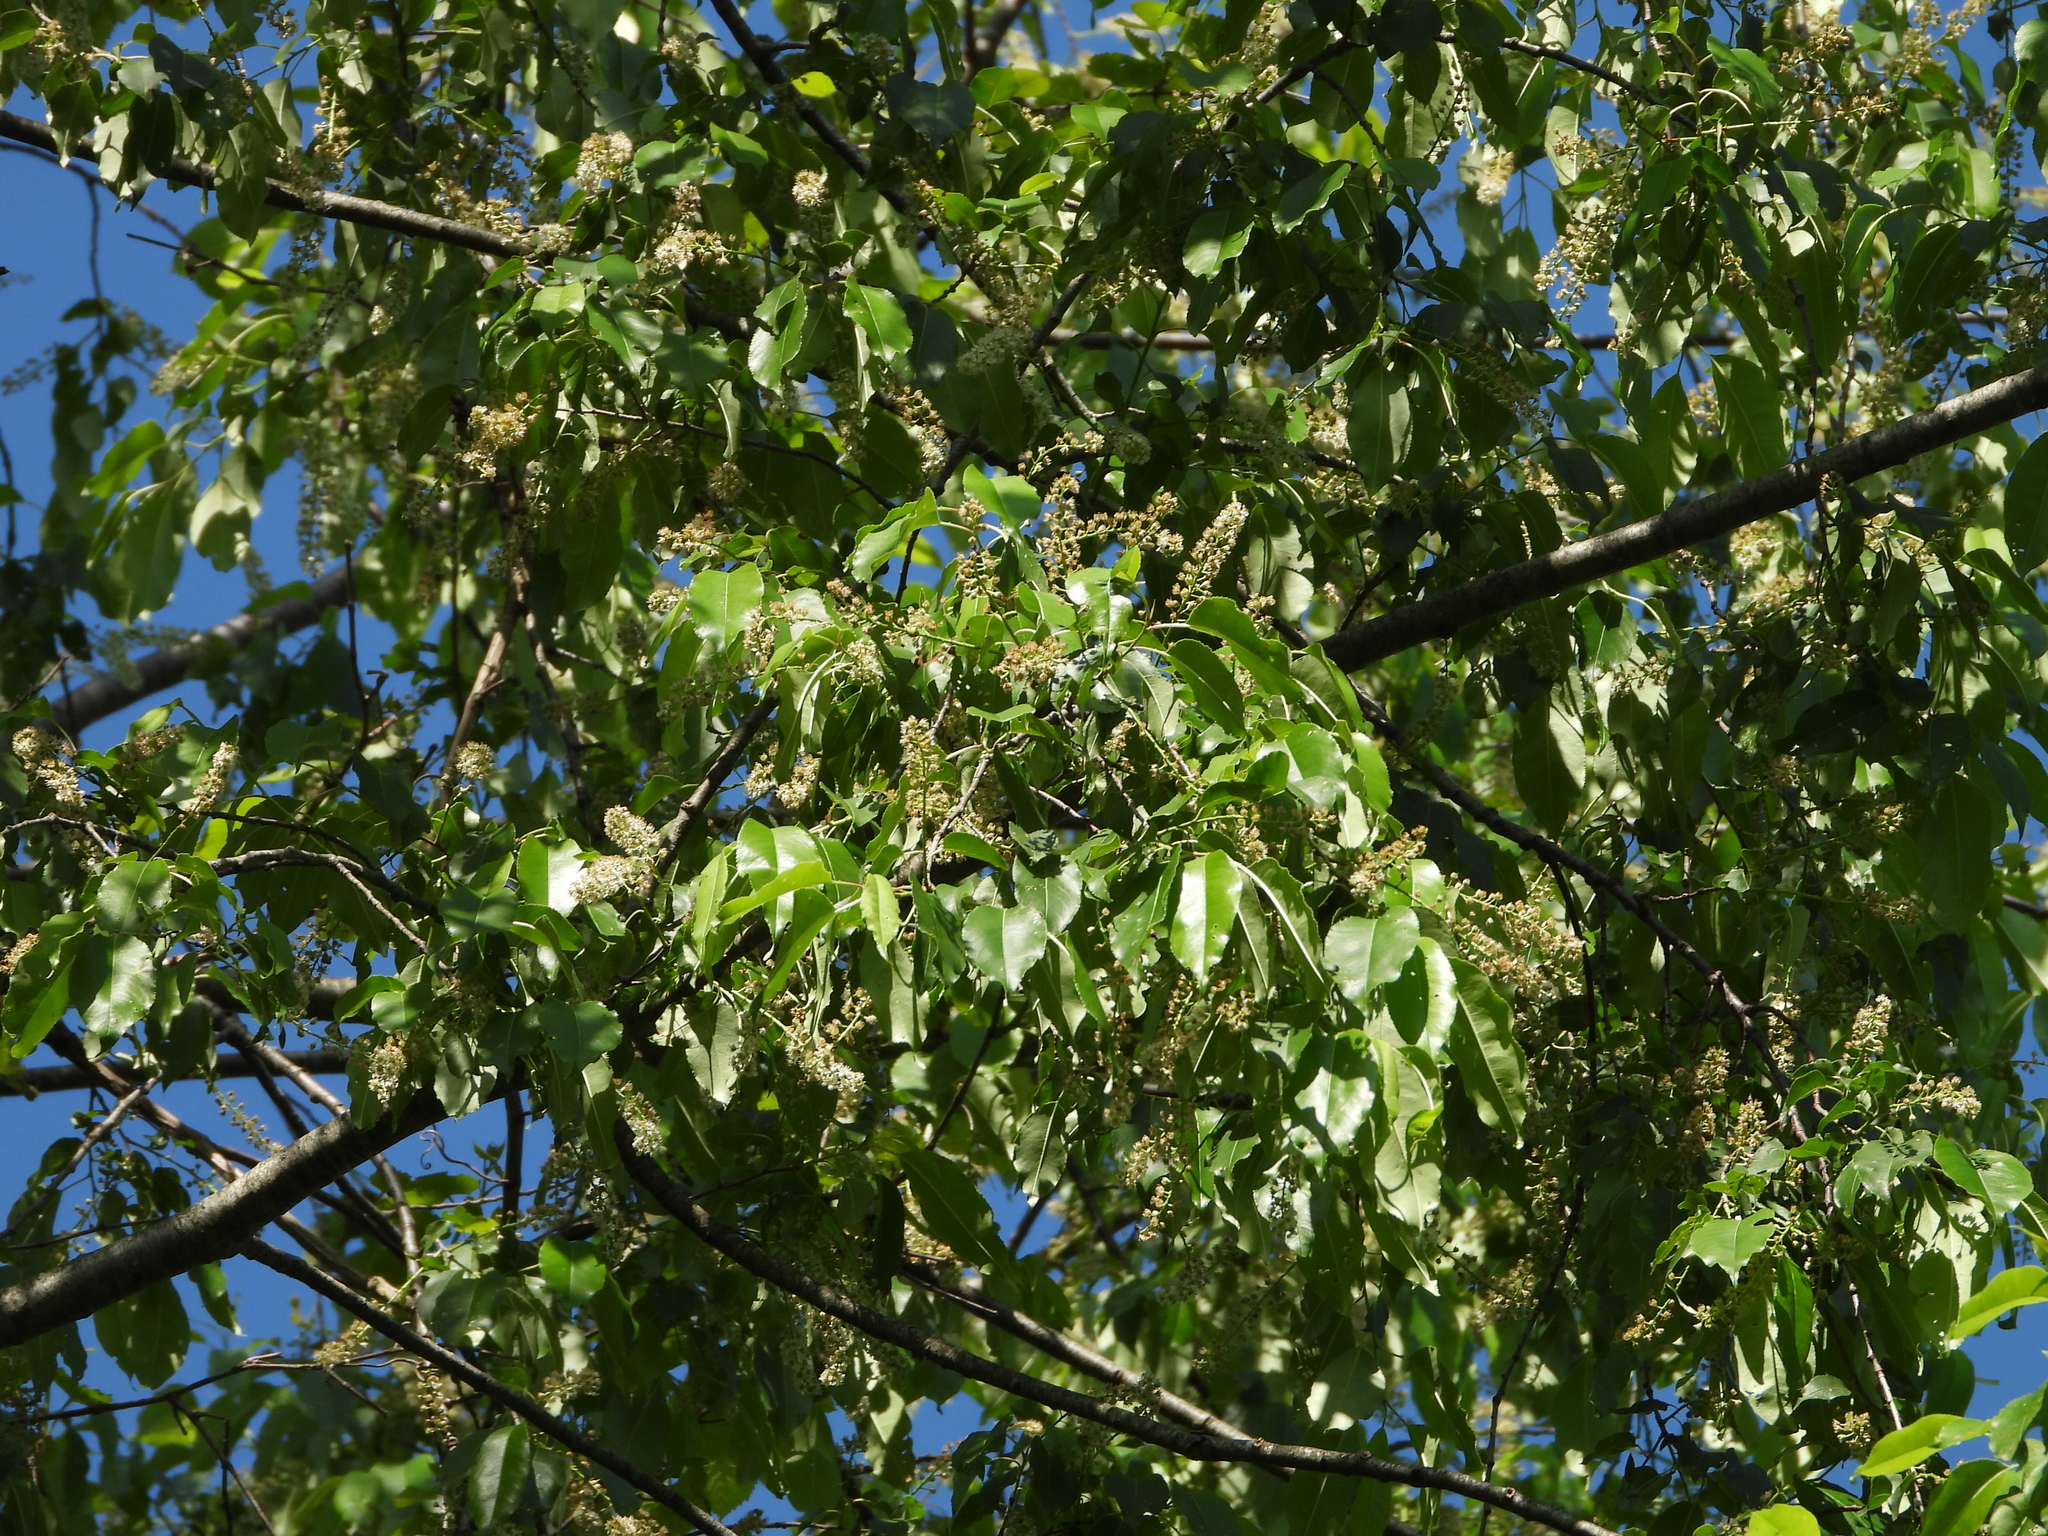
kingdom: Plantae
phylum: Tracheophyta
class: Magnoliopsida
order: Rosales
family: Rosaceae
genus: Prunus
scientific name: Prunus serotina
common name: Black cherry
